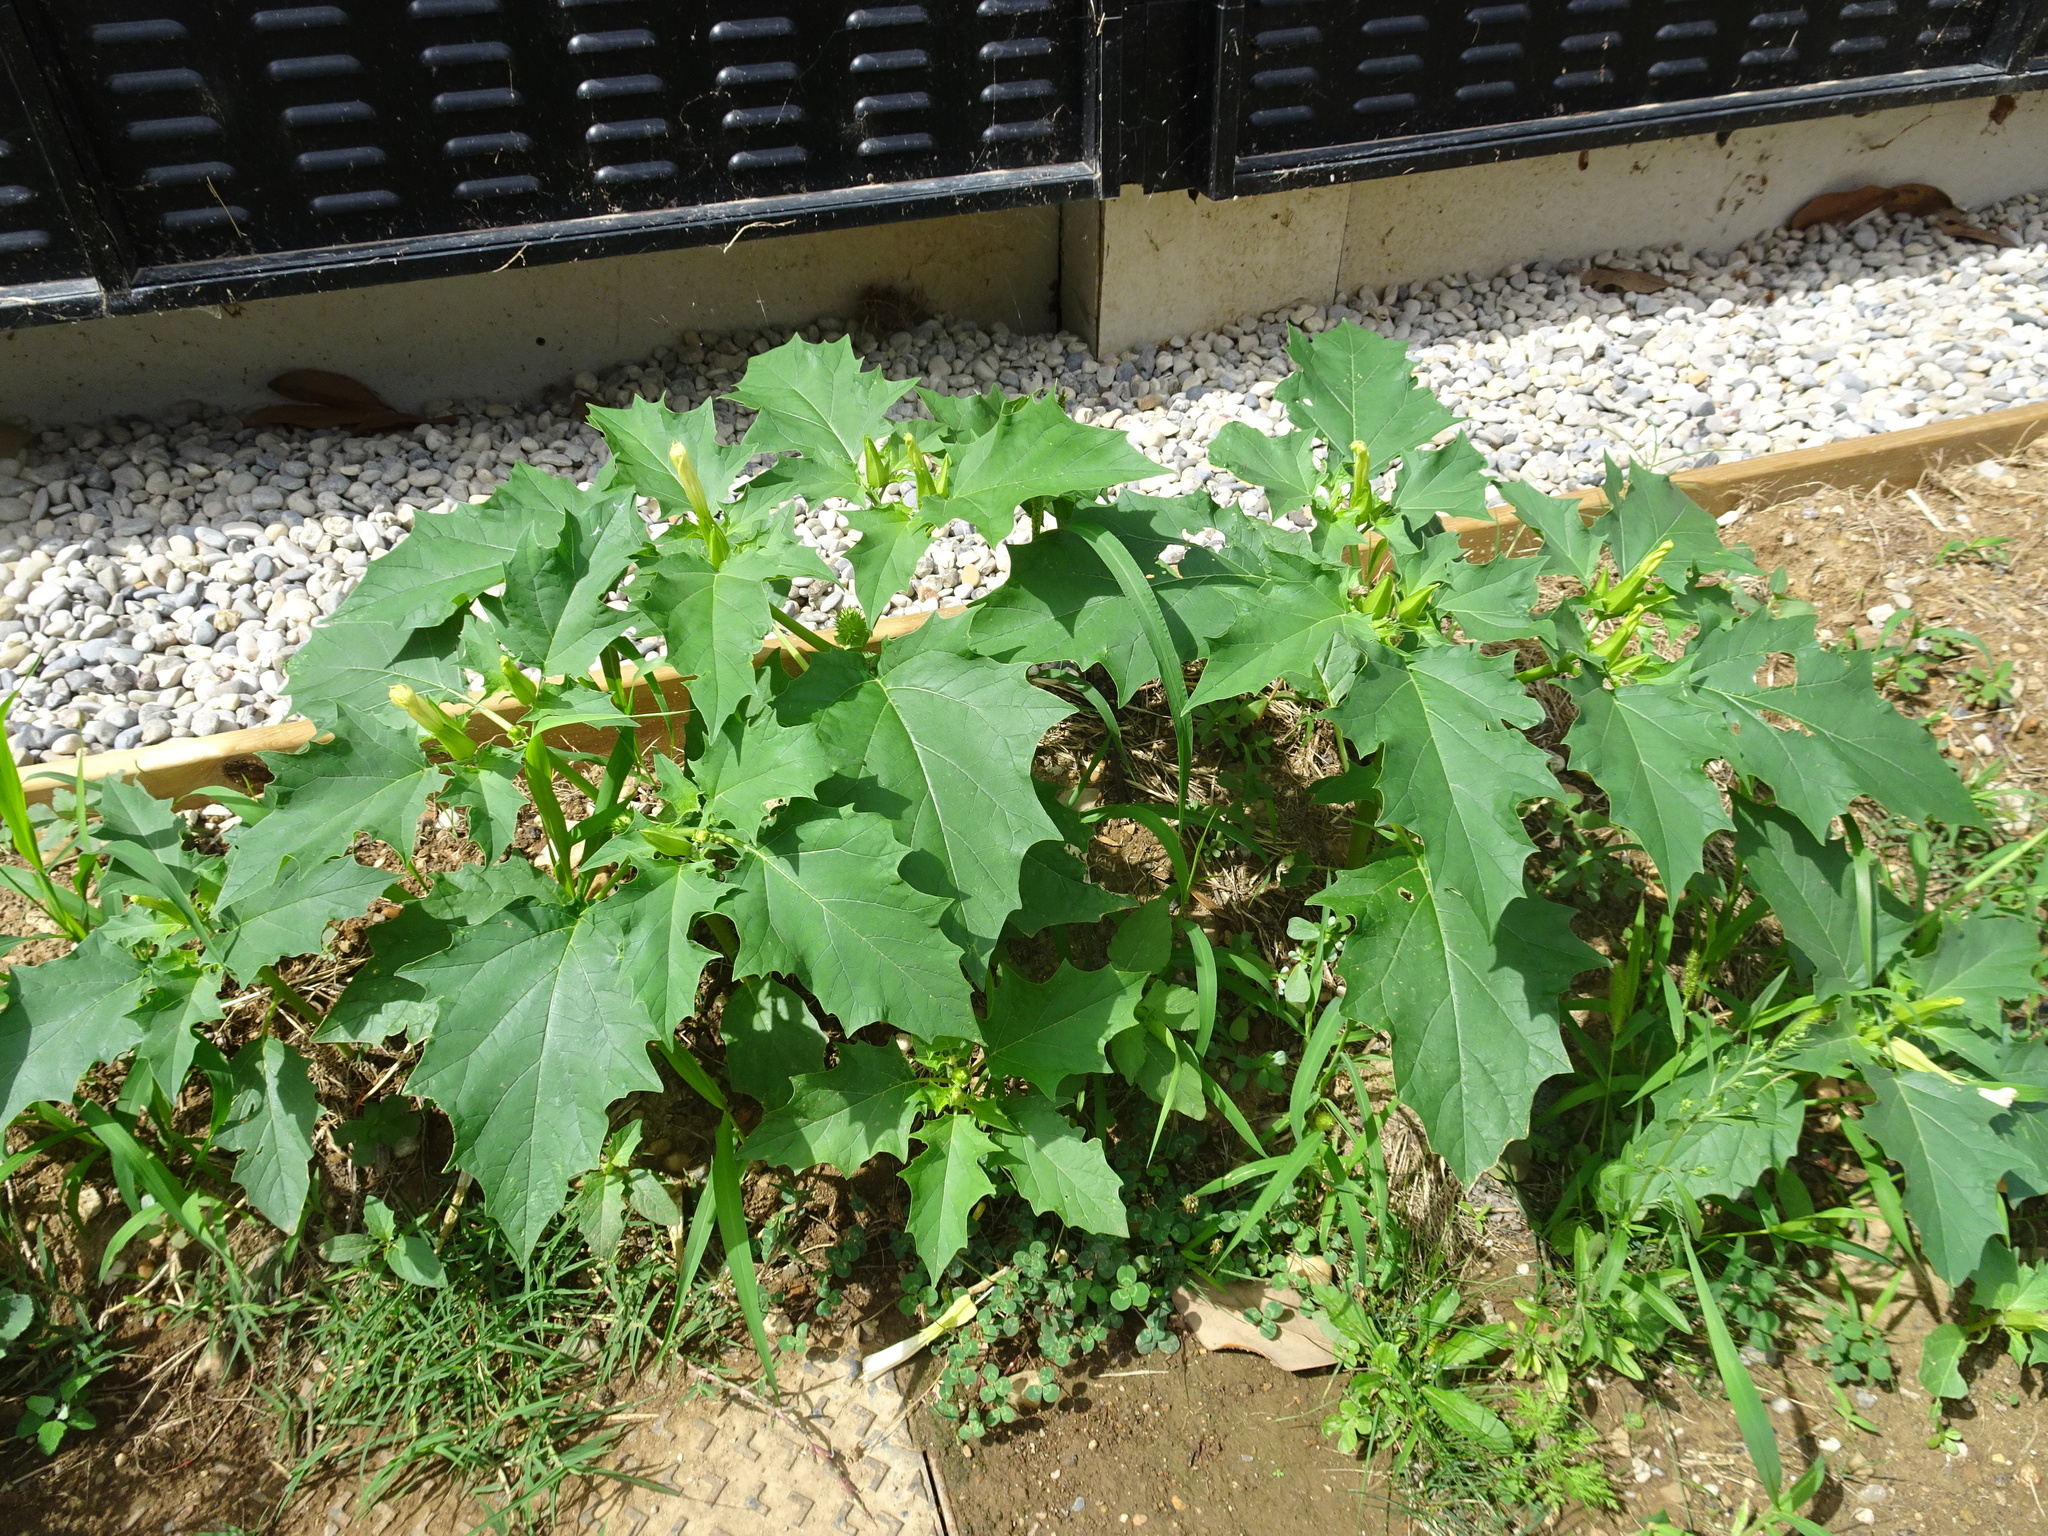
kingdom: Plantae
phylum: Tracheophyta
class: Magnoliopsida
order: Solanales
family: Solanaceae
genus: Datura
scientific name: Datura stramonium
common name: Thorn-apple
